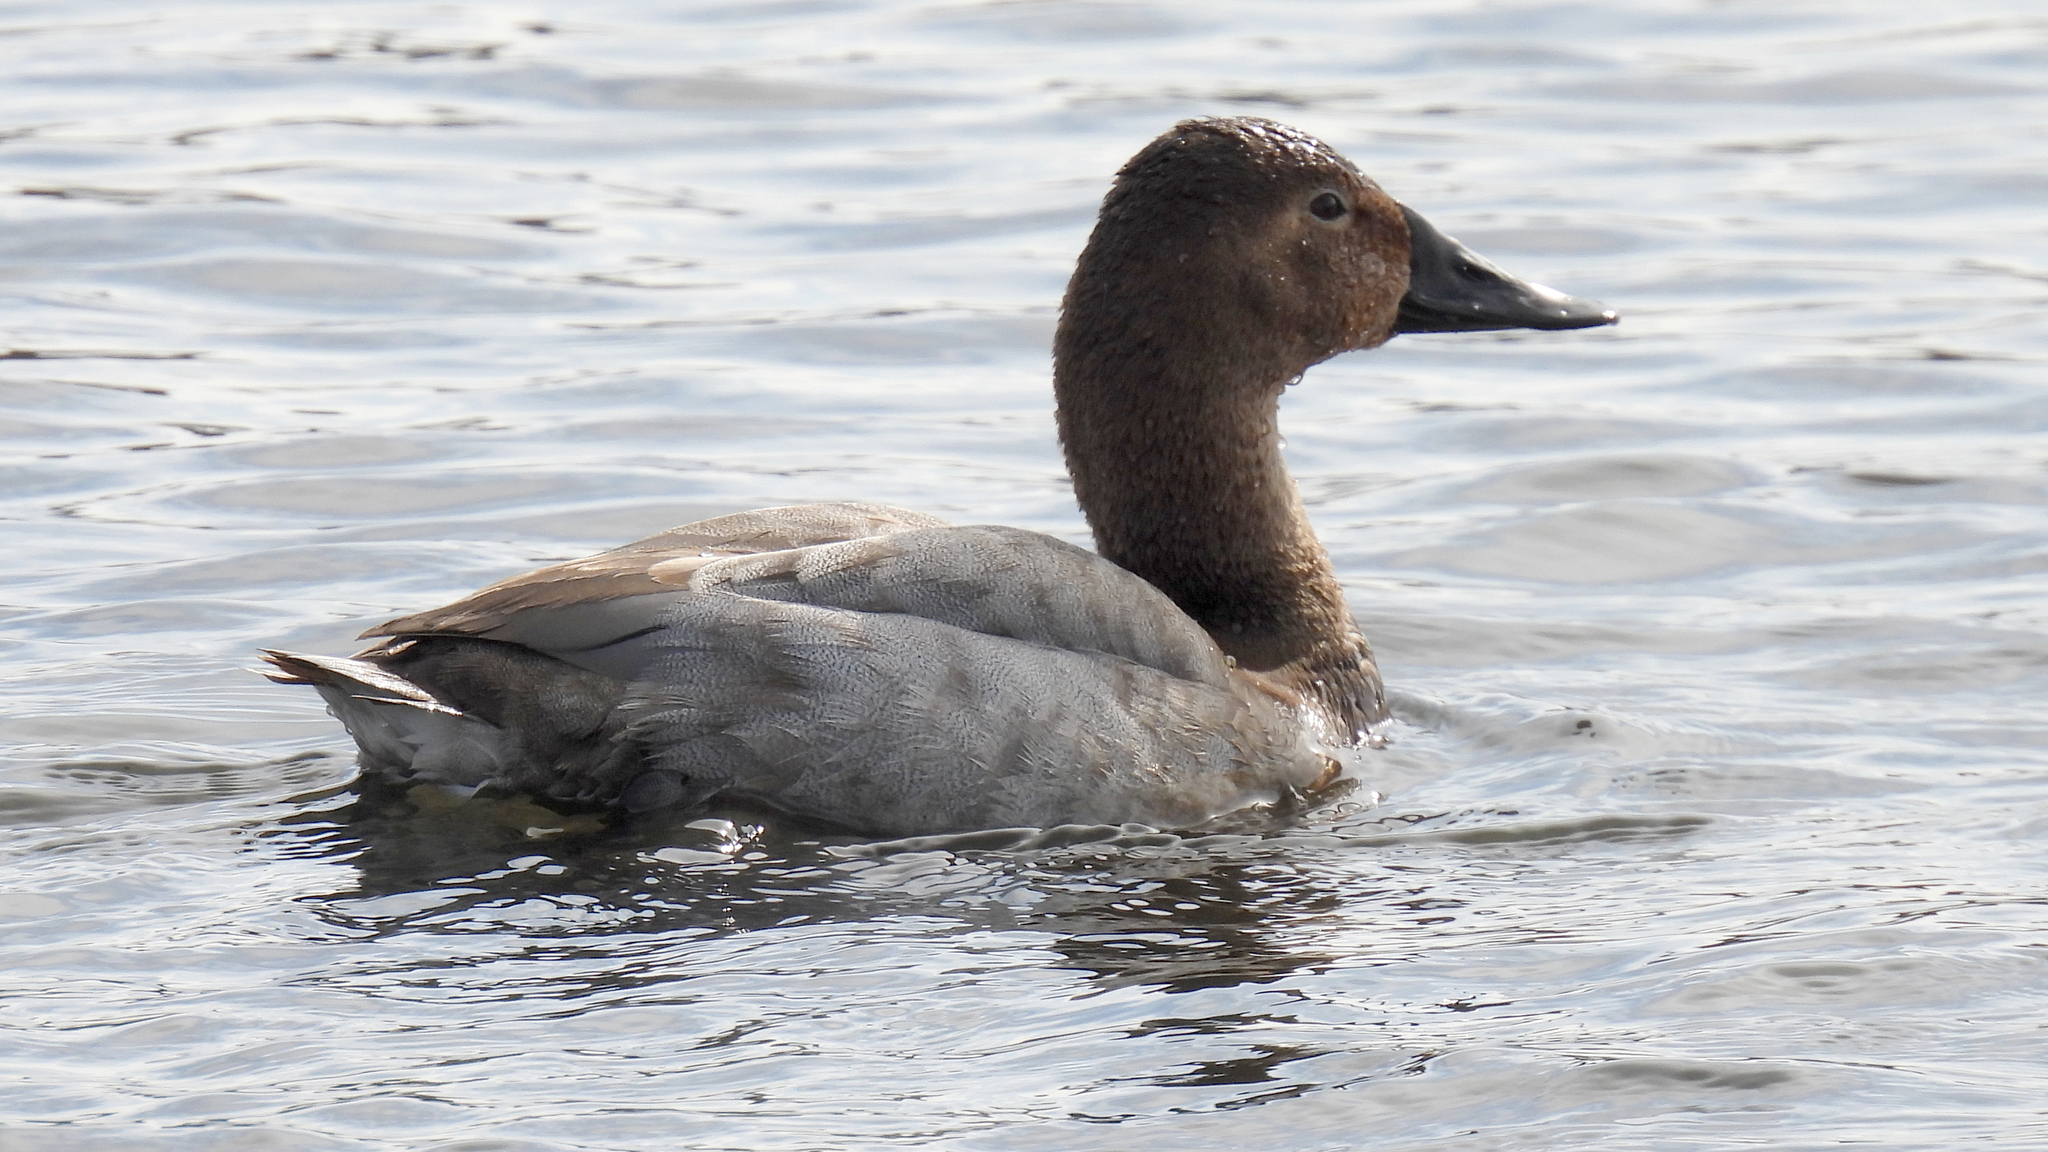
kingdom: Animalia
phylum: Chordata
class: Aves
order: Anseriformes
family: Anatidae
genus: Aythya
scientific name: Aythya valisineria
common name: Canvasback
